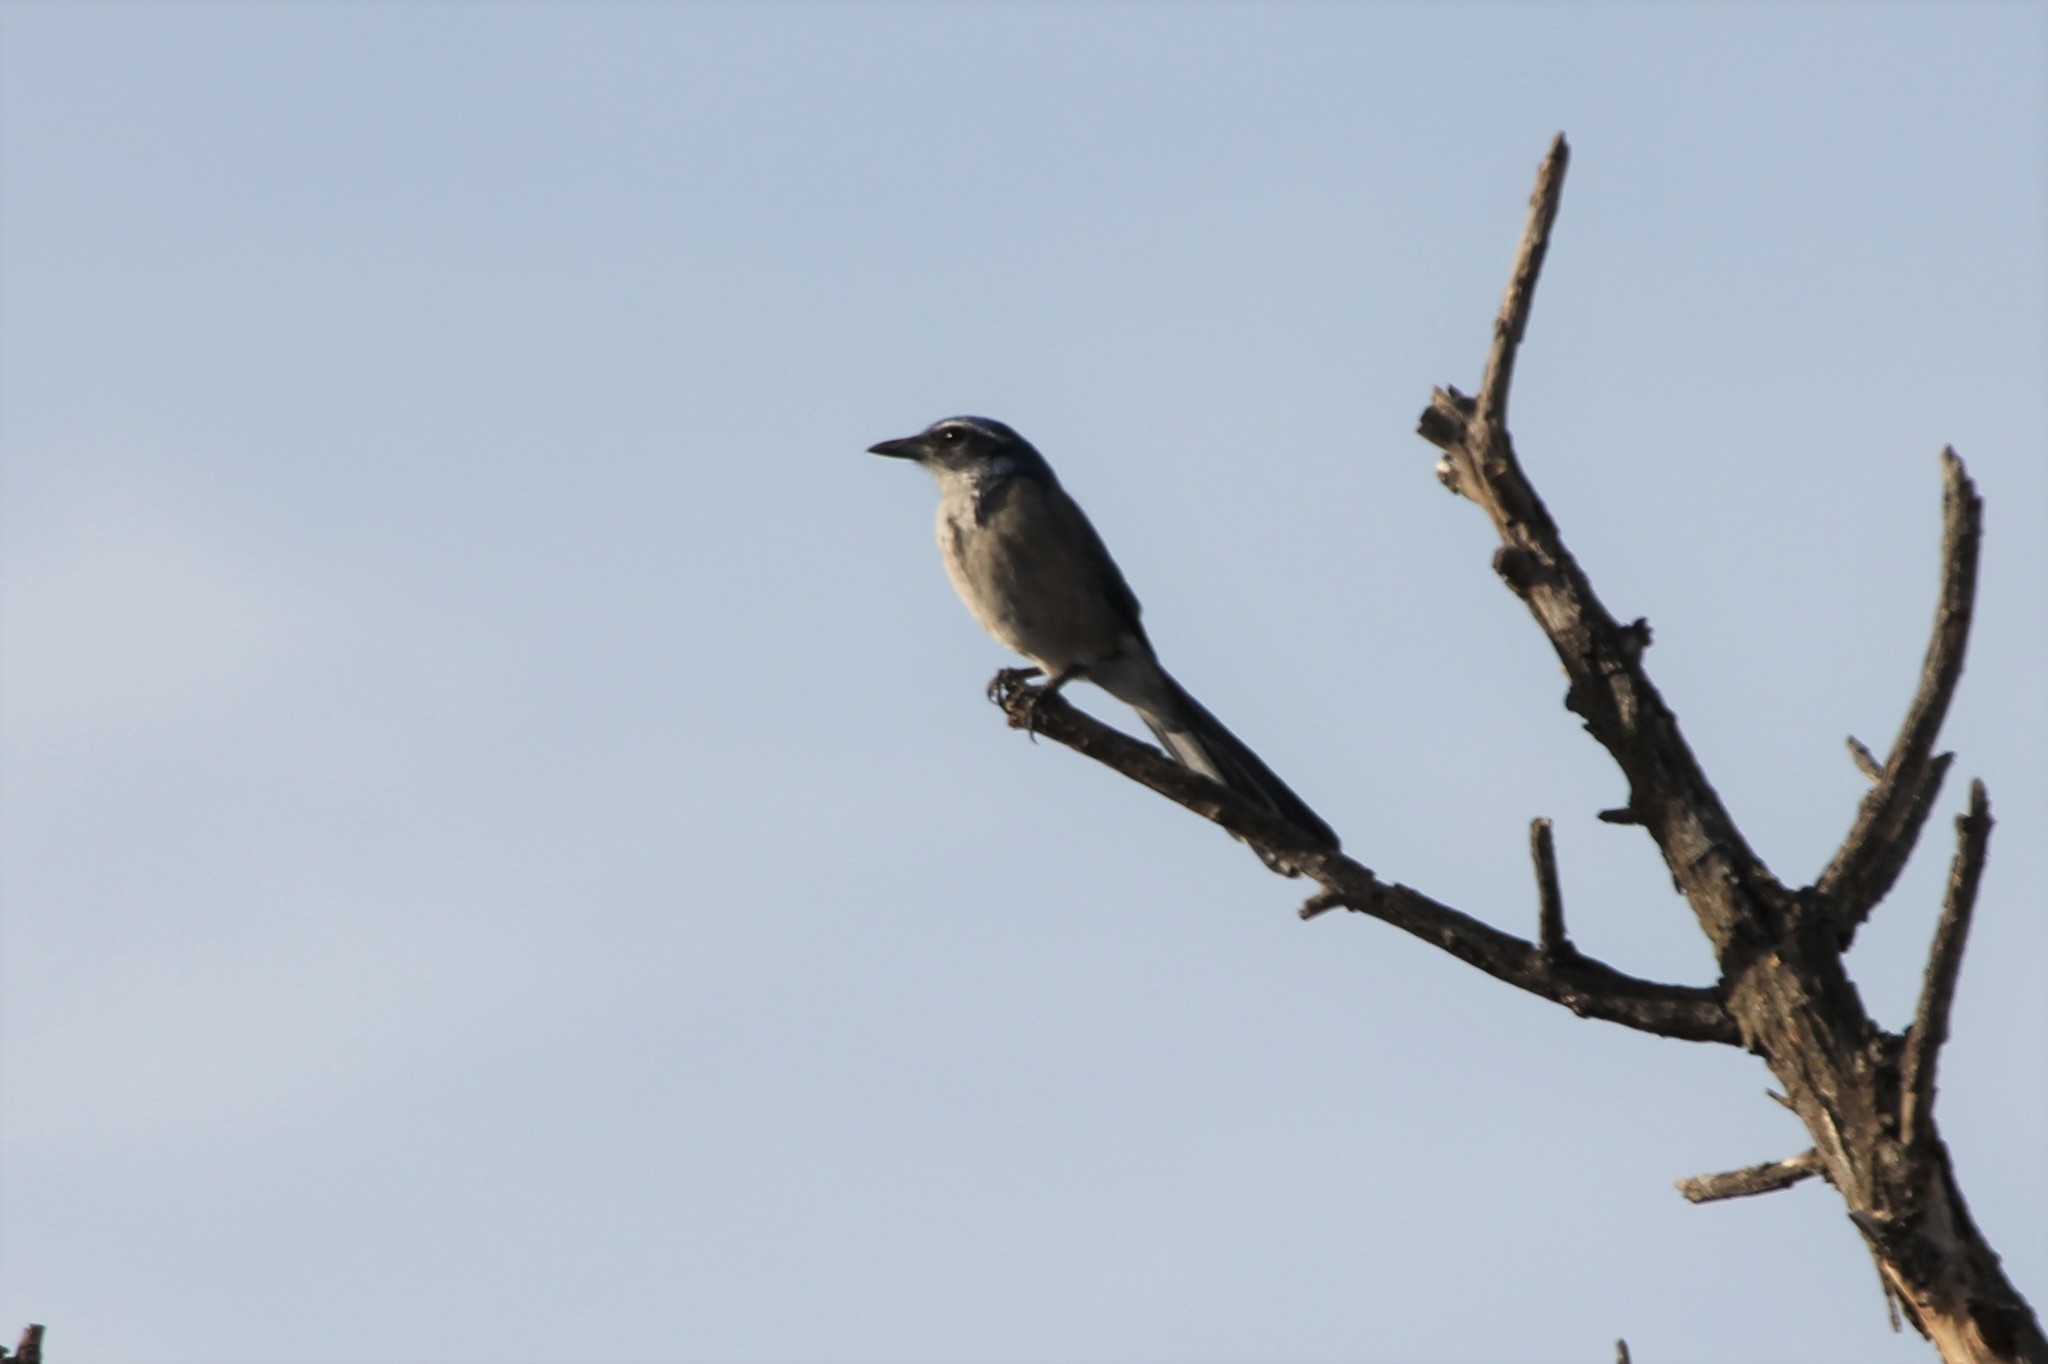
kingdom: Animalia
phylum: Chordata
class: Aves
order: Passeriformes
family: Corvidae
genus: Aphelocoma
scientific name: Aphelocoma californica
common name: California scrub-jay
